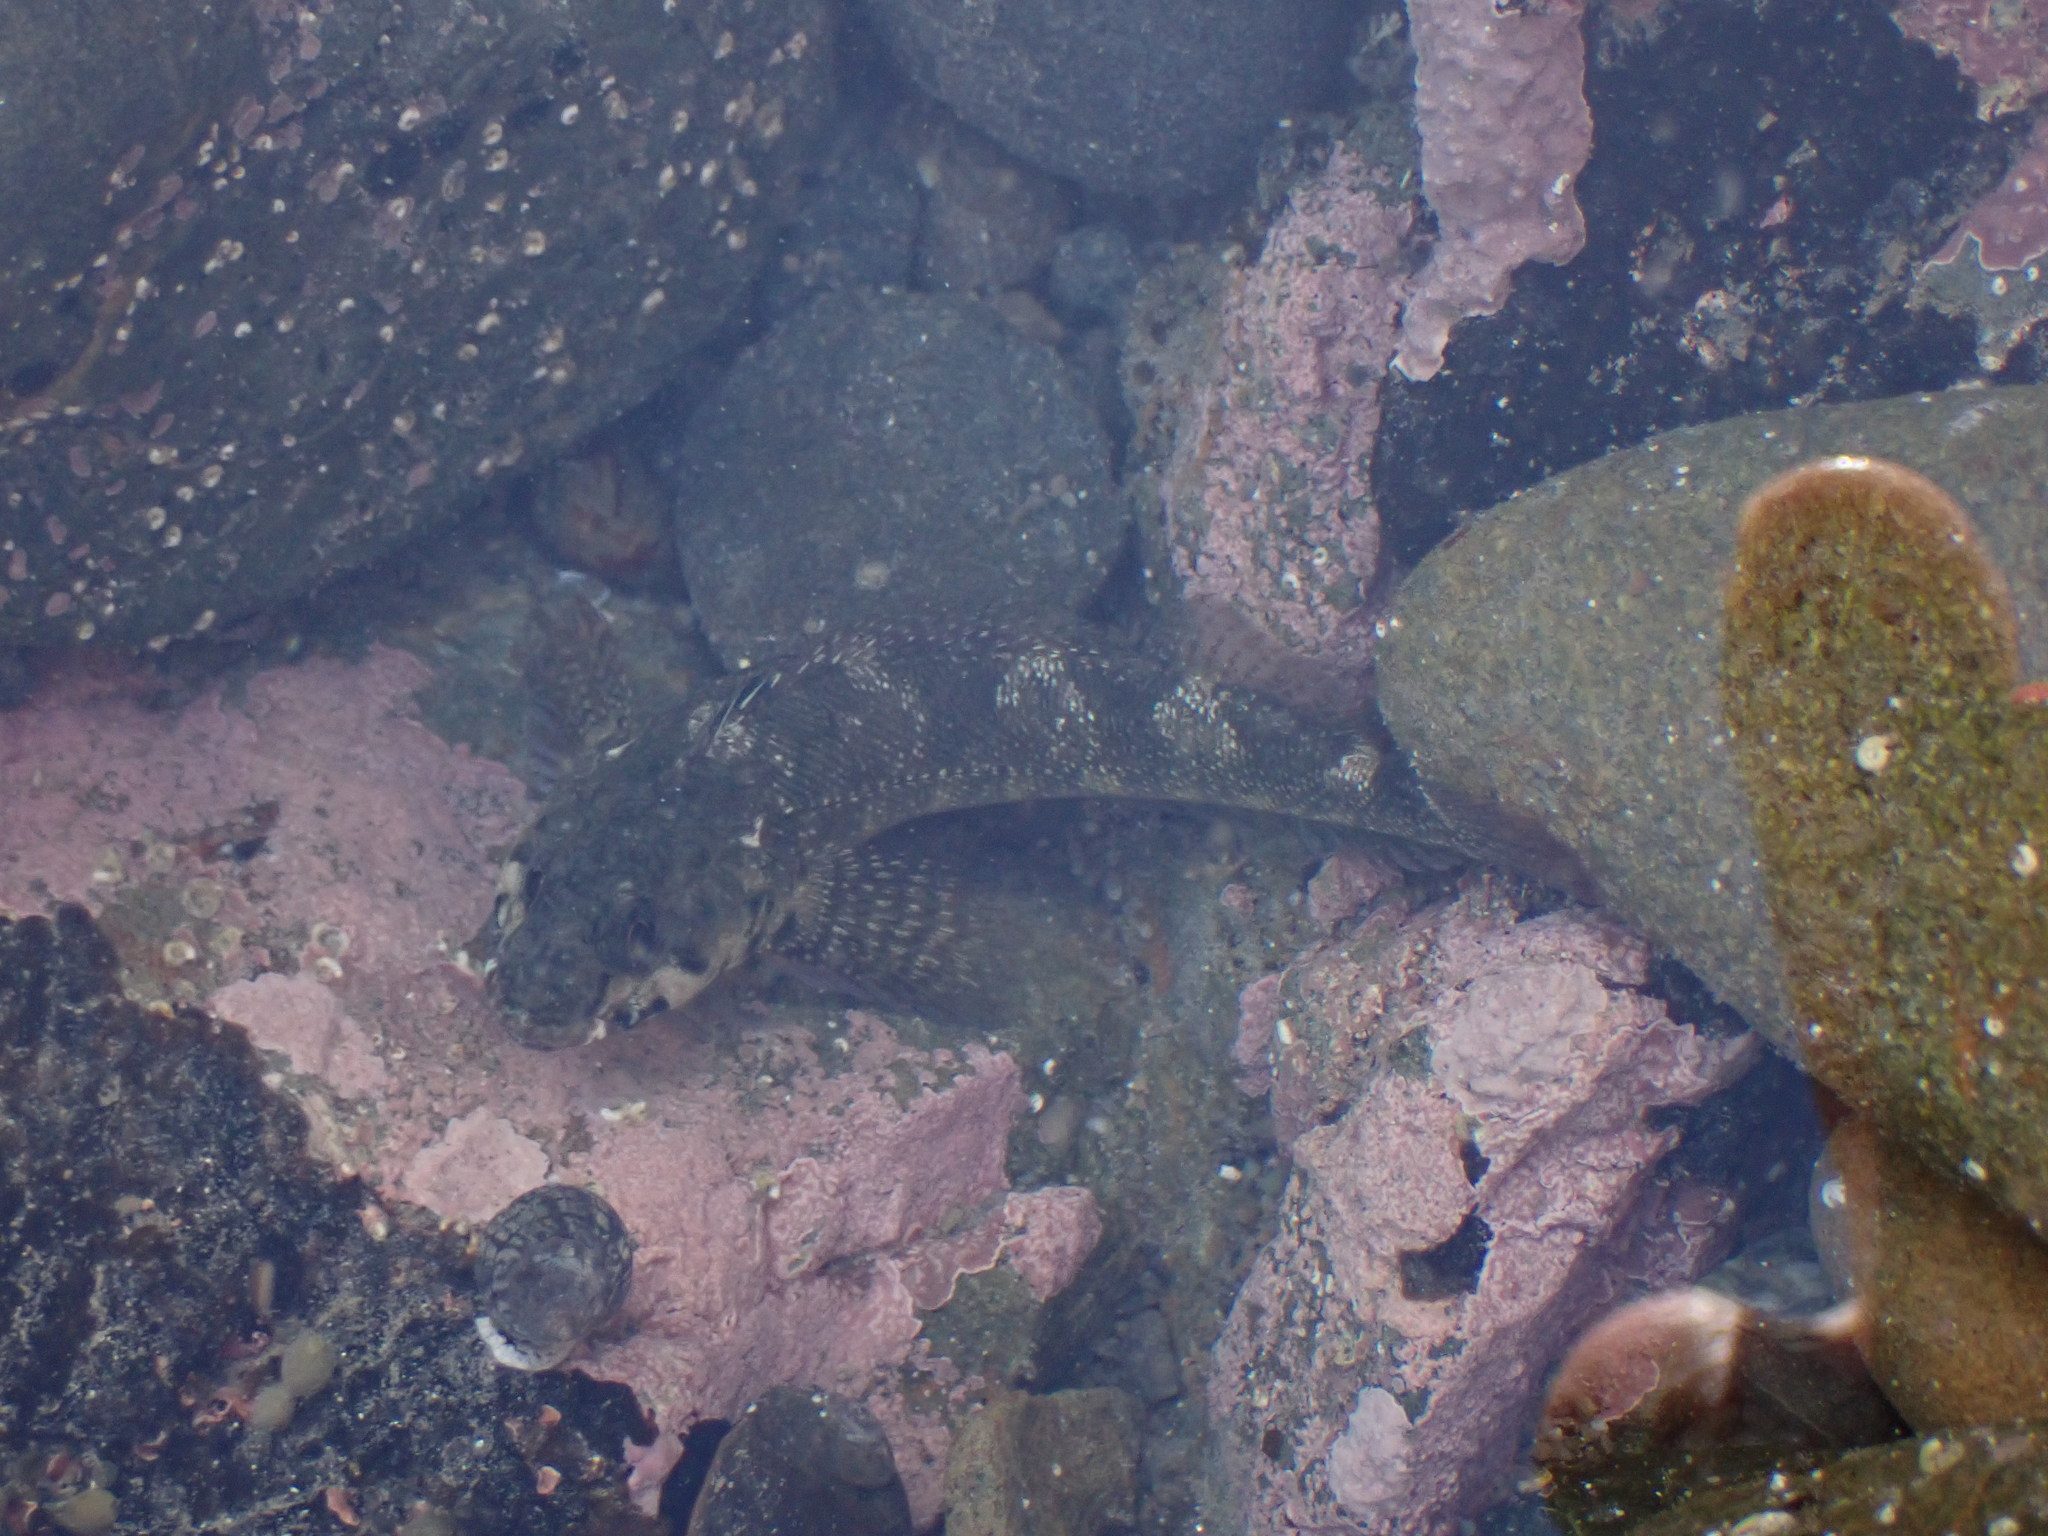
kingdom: Animalia
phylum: Chordata
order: Perciformes
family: Tripterygiidae
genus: Bellapiscis
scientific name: Bellapiscis medius
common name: Twister
